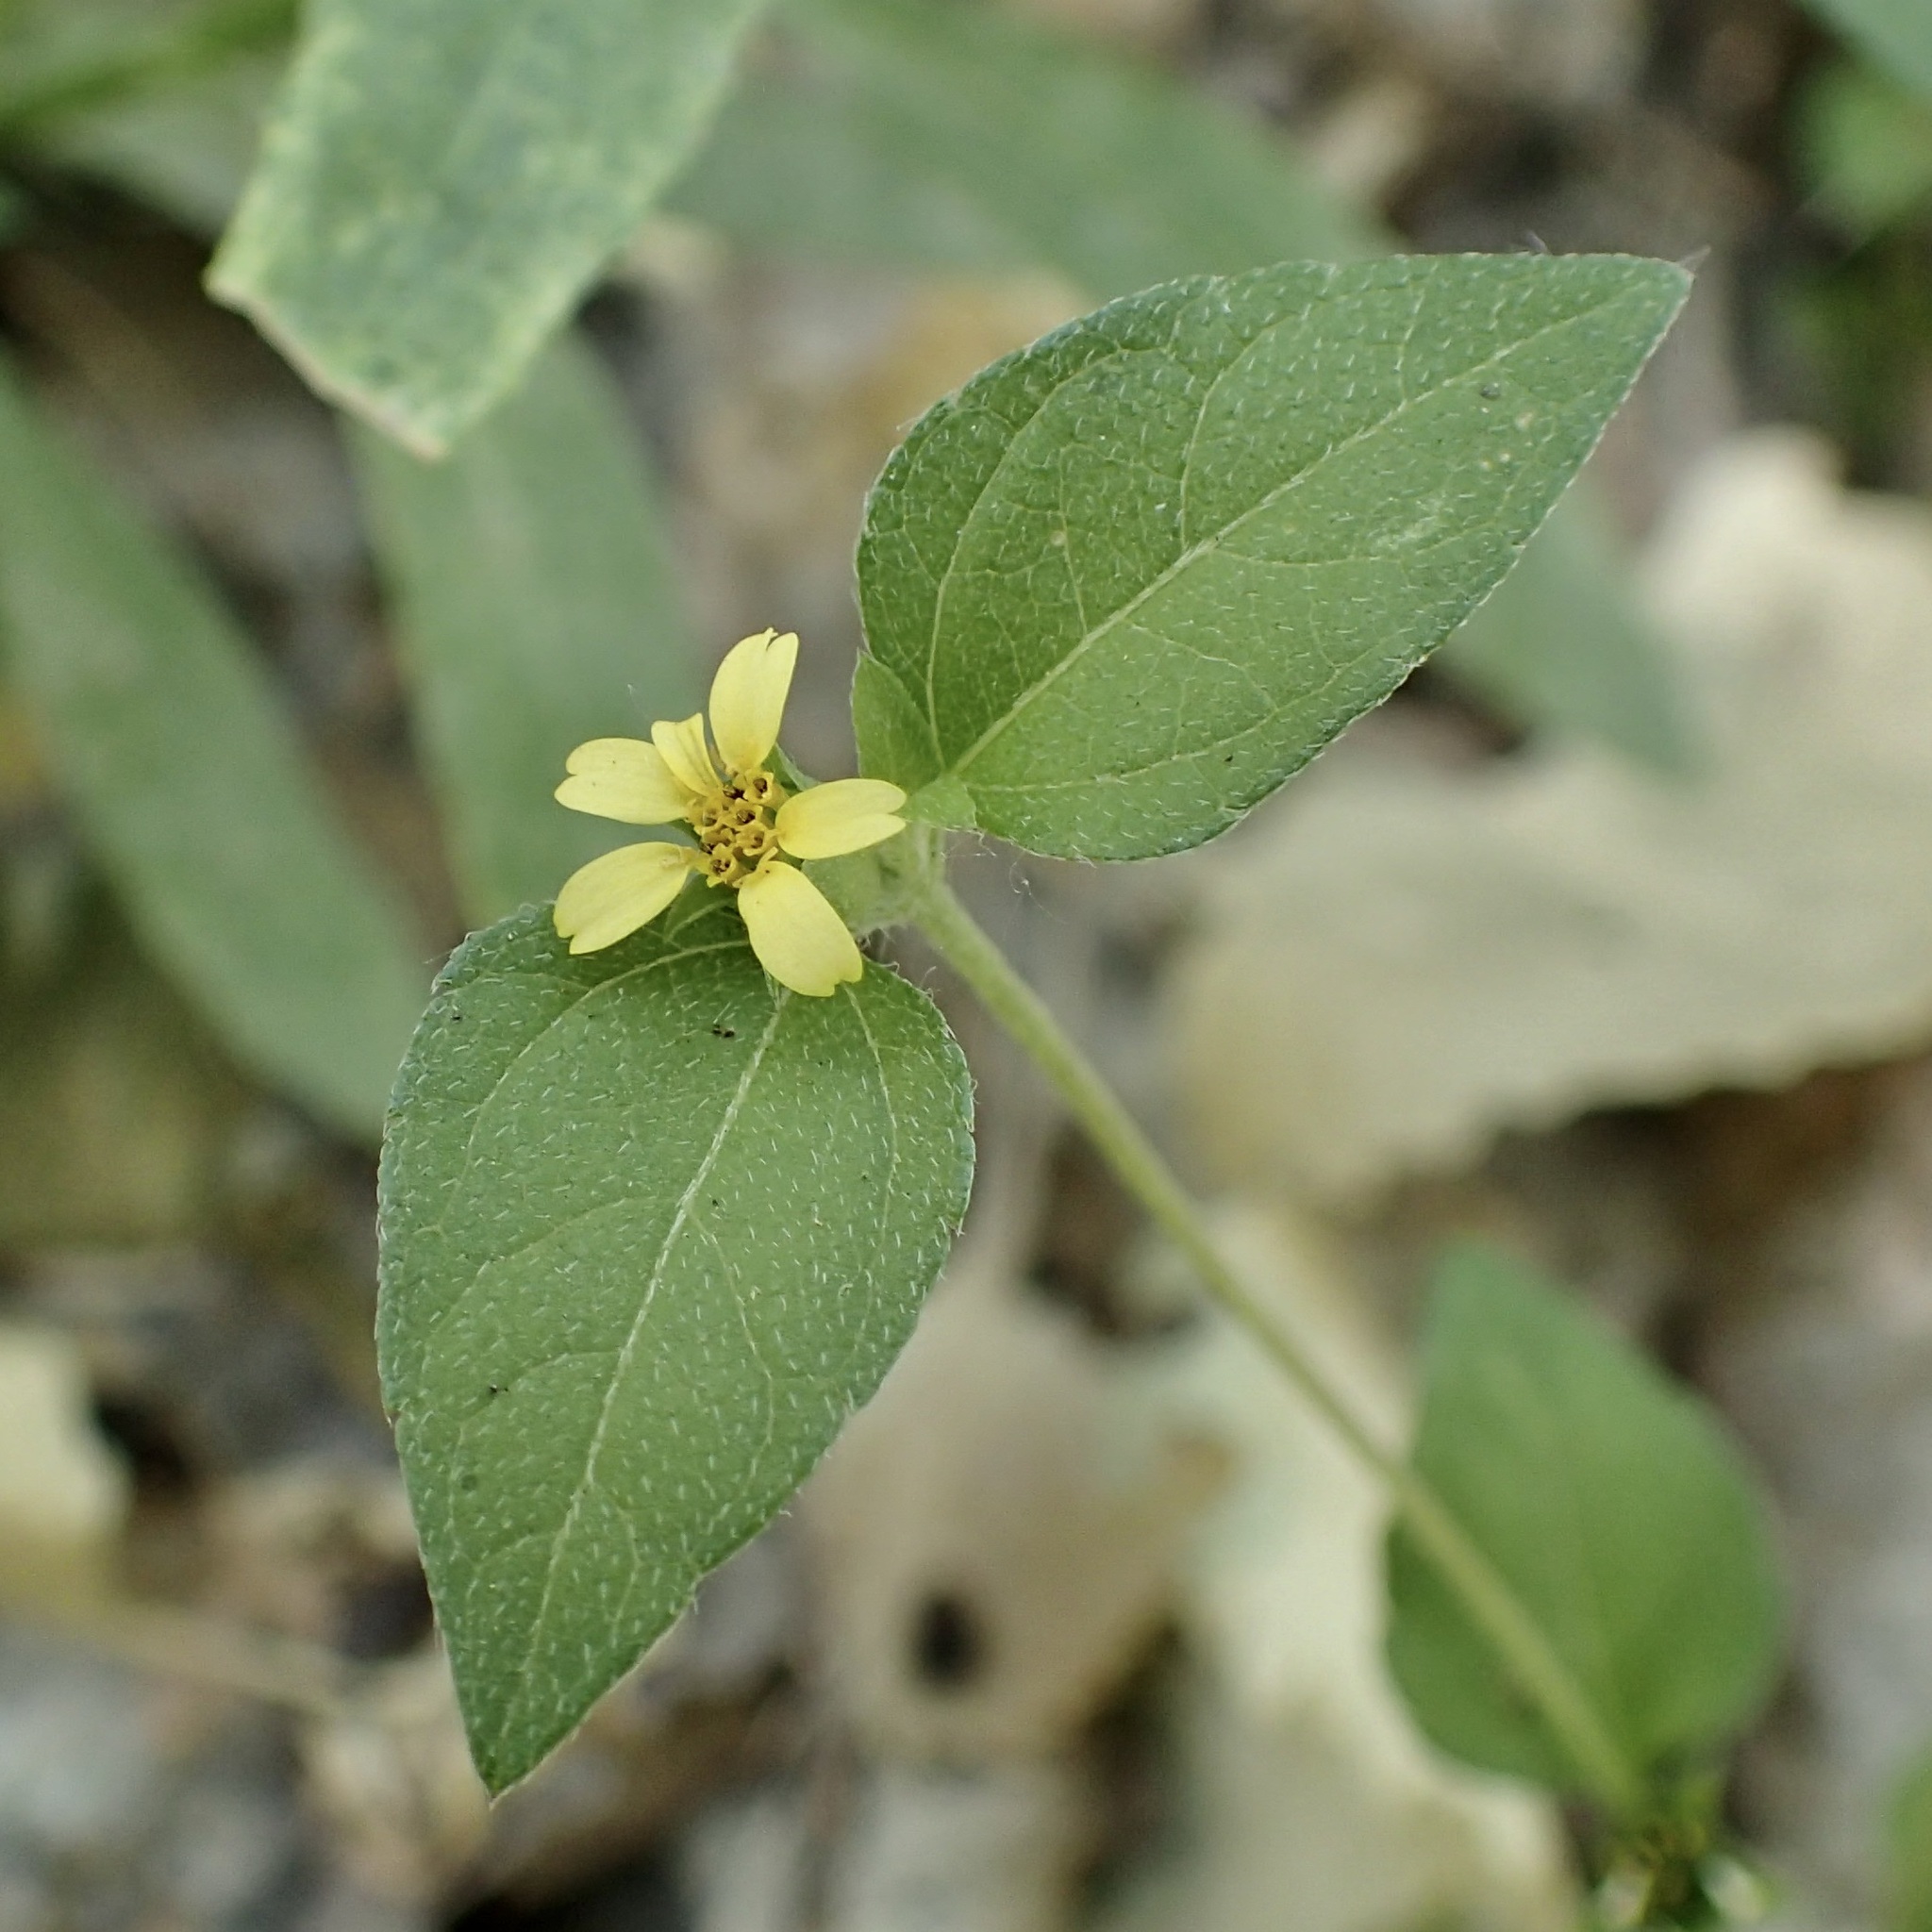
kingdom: Plantae
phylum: Tracheophyta
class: Magnoliopsida
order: Asterales
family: Asteraceae
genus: Calyptocarpus
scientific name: Calyptocarpus vialis
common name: Straggler daisy
